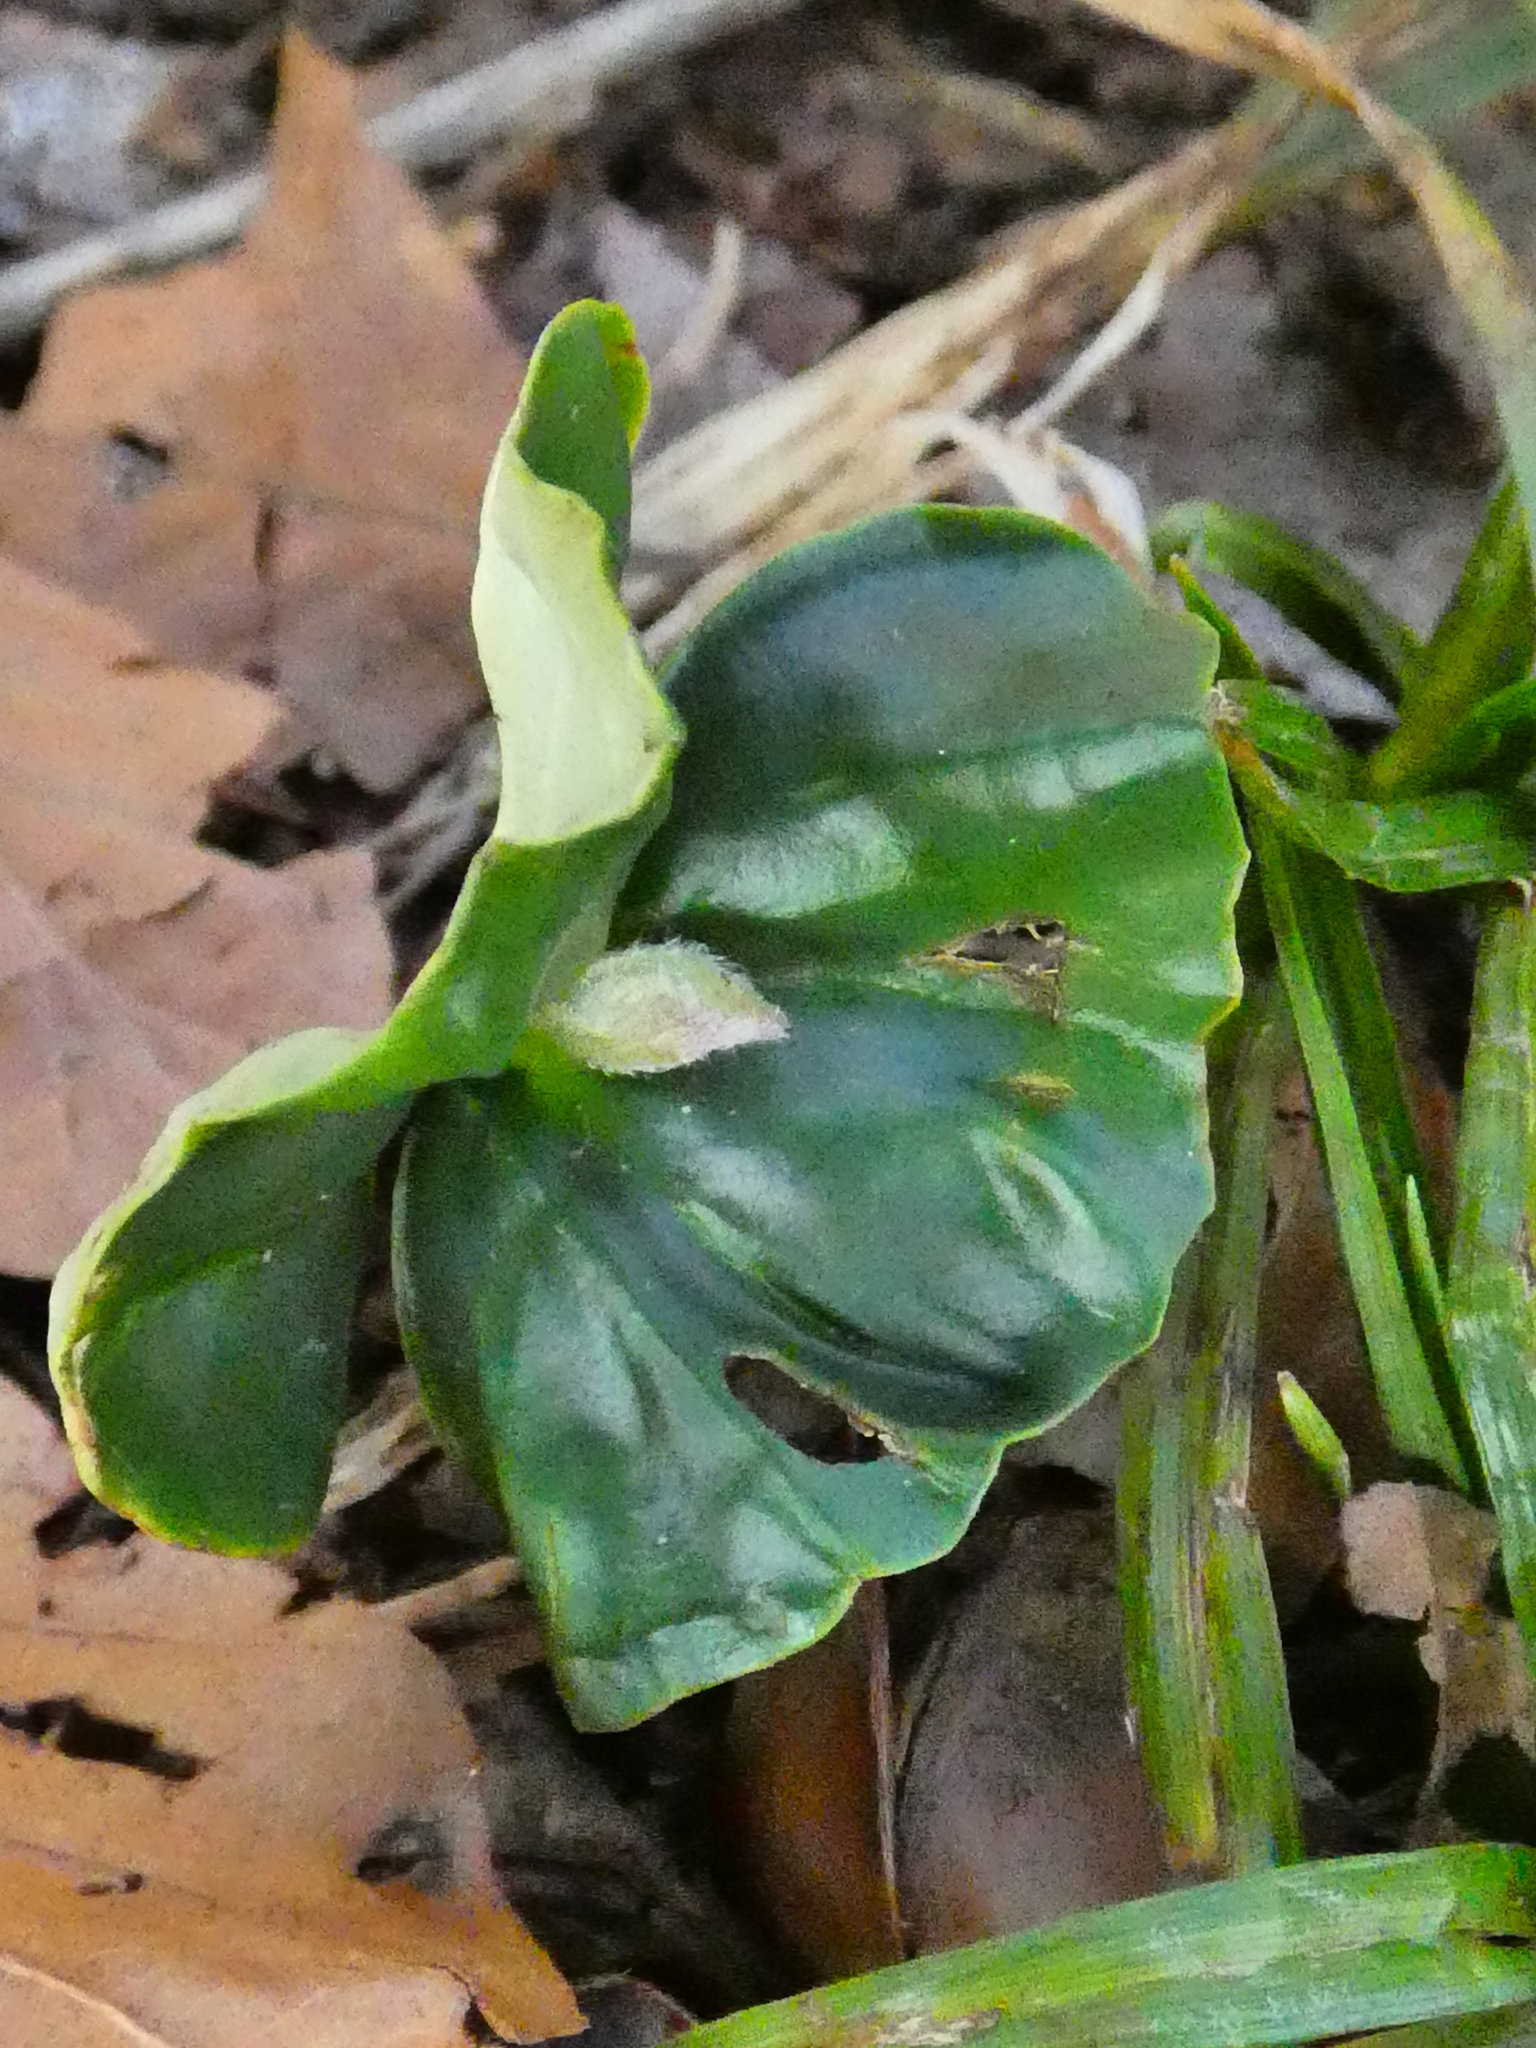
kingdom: Plantae
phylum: Tracheophyta
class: Magnoliopsida
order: Fagales
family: Fagaceae
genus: Fagus
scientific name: Fagus sylvatica
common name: Beech
